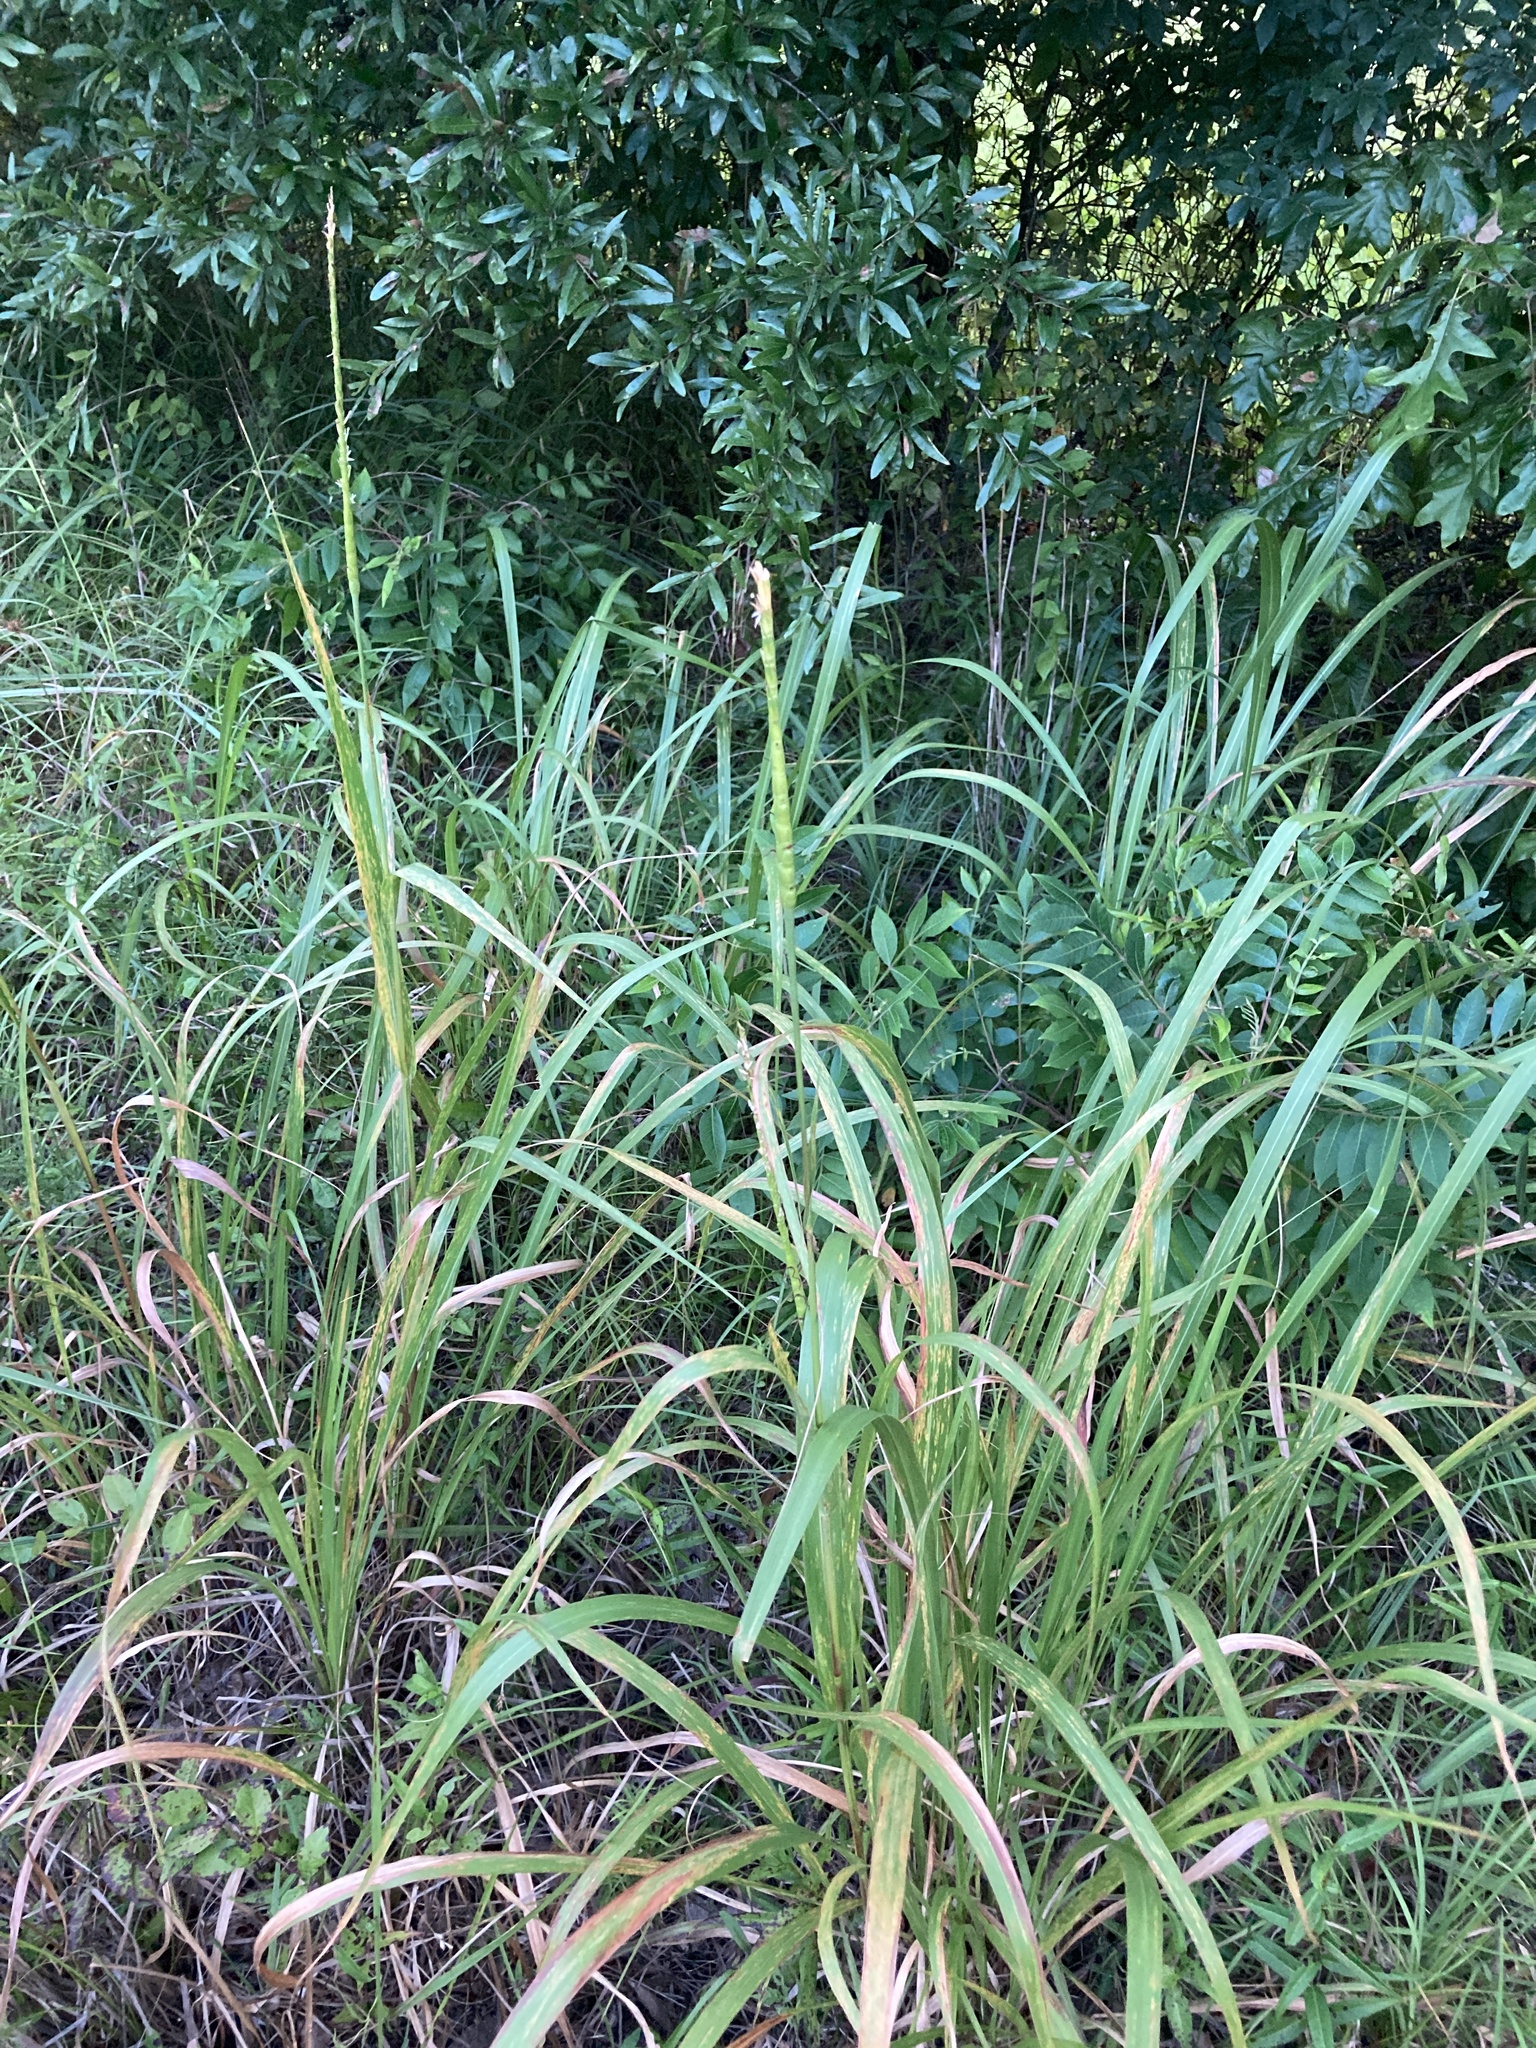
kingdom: Plantae
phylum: Tracheophyta
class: Liliopsida
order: Poales
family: Poaceae
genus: Tripsacum
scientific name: Tripsacum dactyloides
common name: Buffalo-grass
